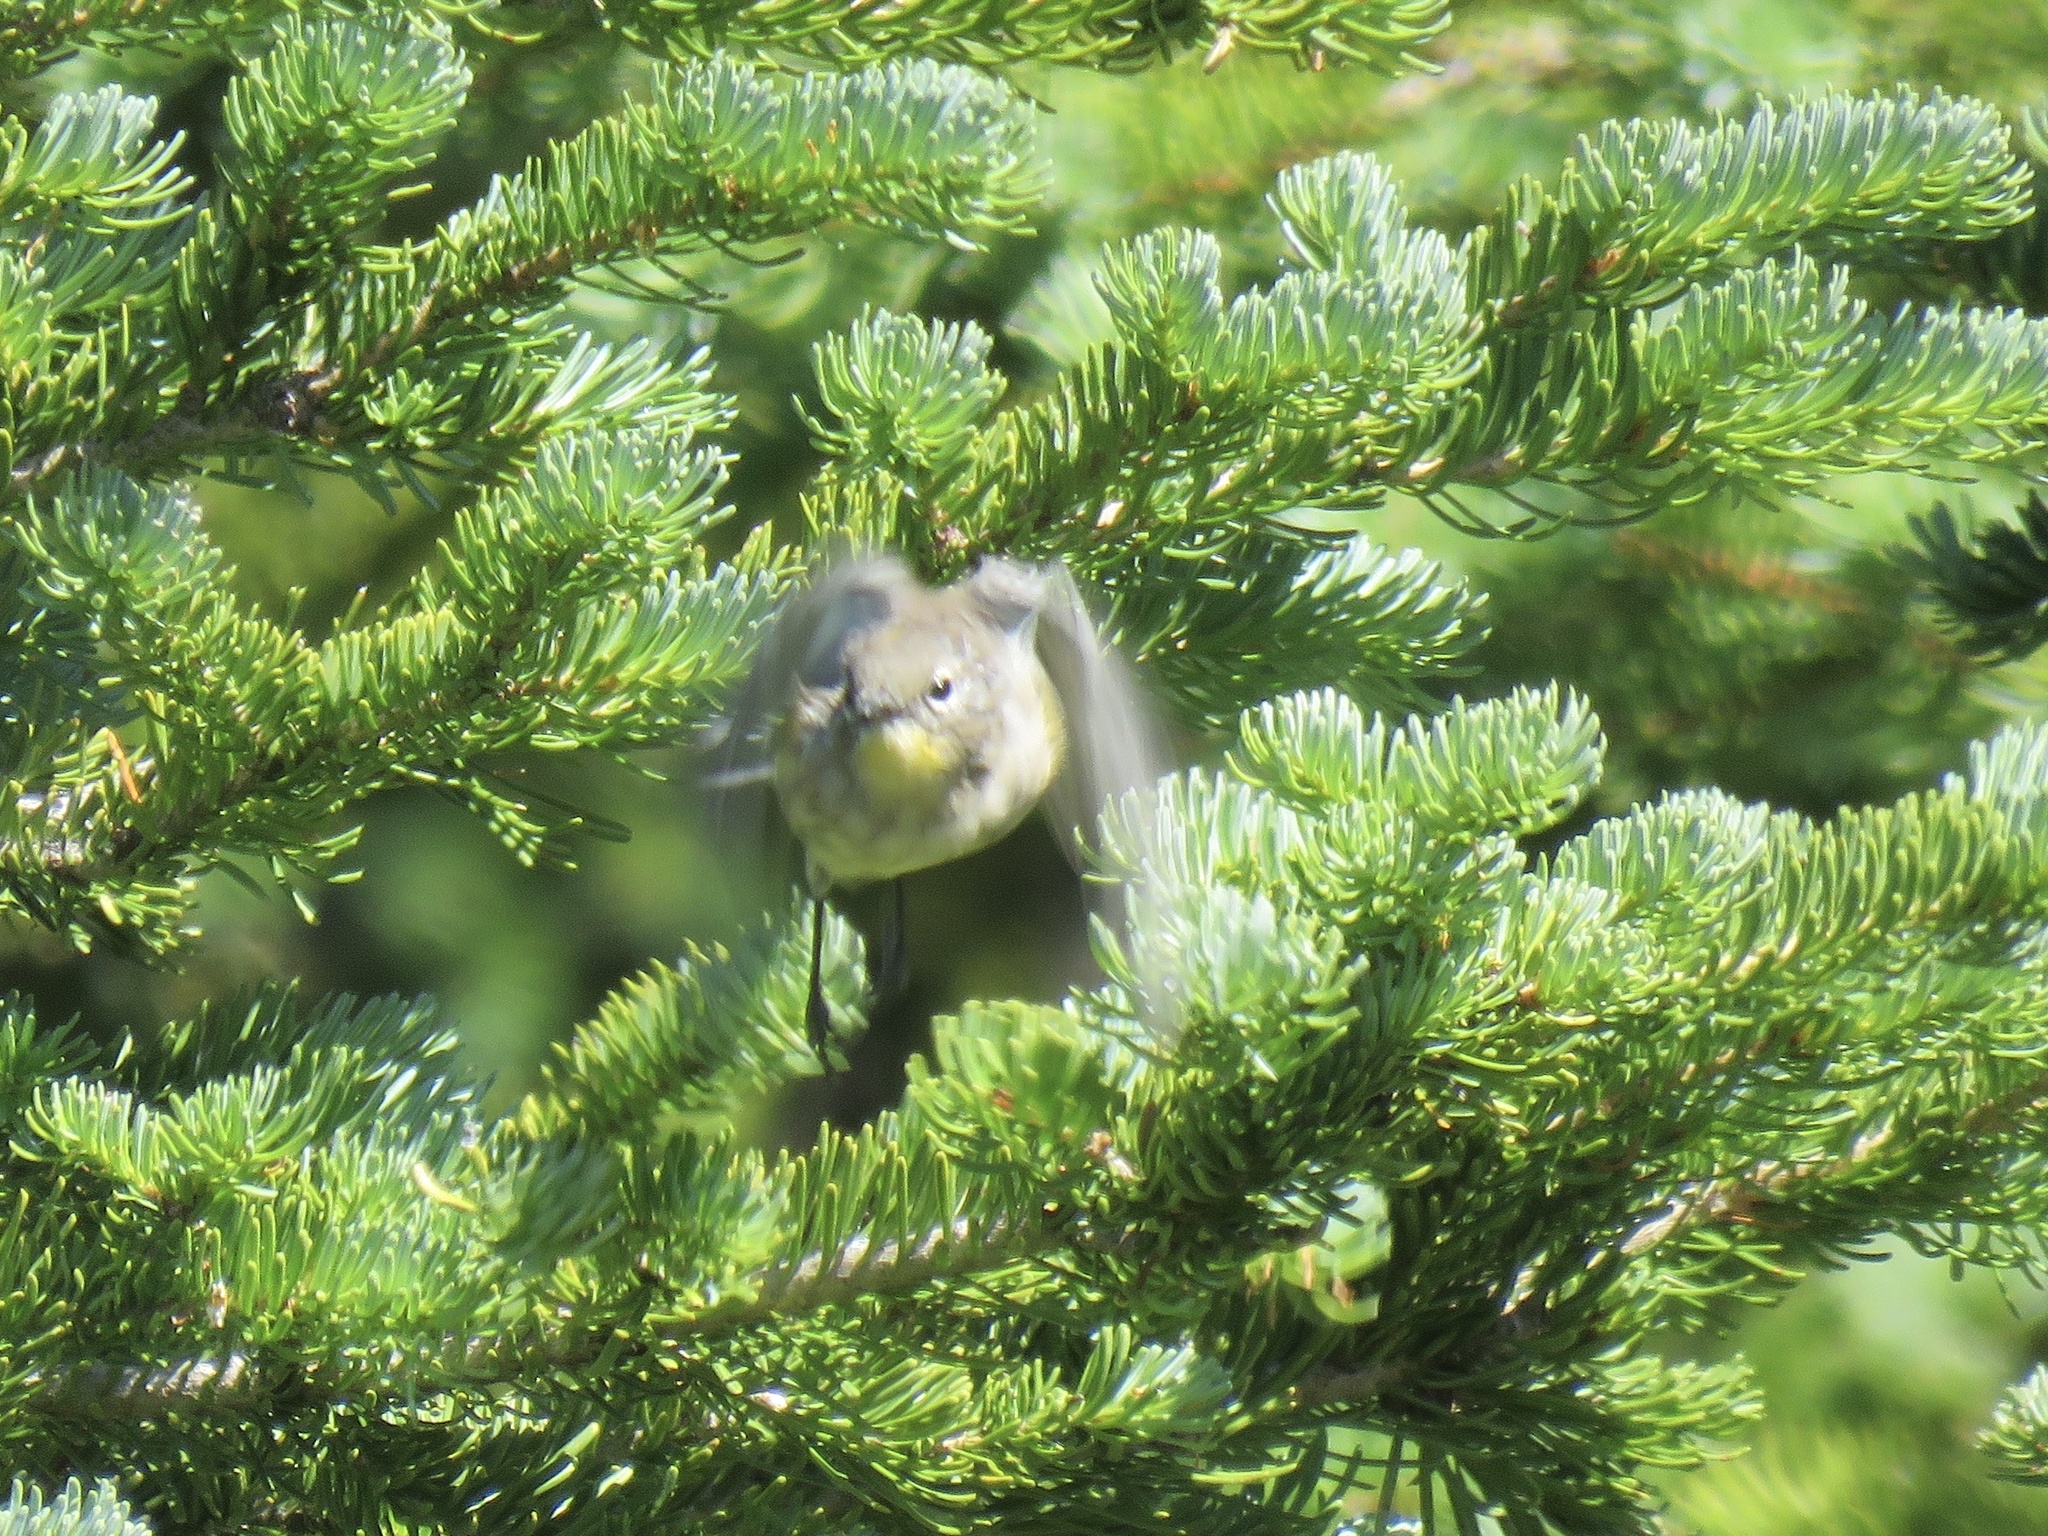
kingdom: Animalia
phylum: Chordata
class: Aves
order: Passeriformes
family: Parulidae
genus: Setophaga
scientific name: Setophaga coronata
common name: Myrtle warbler
